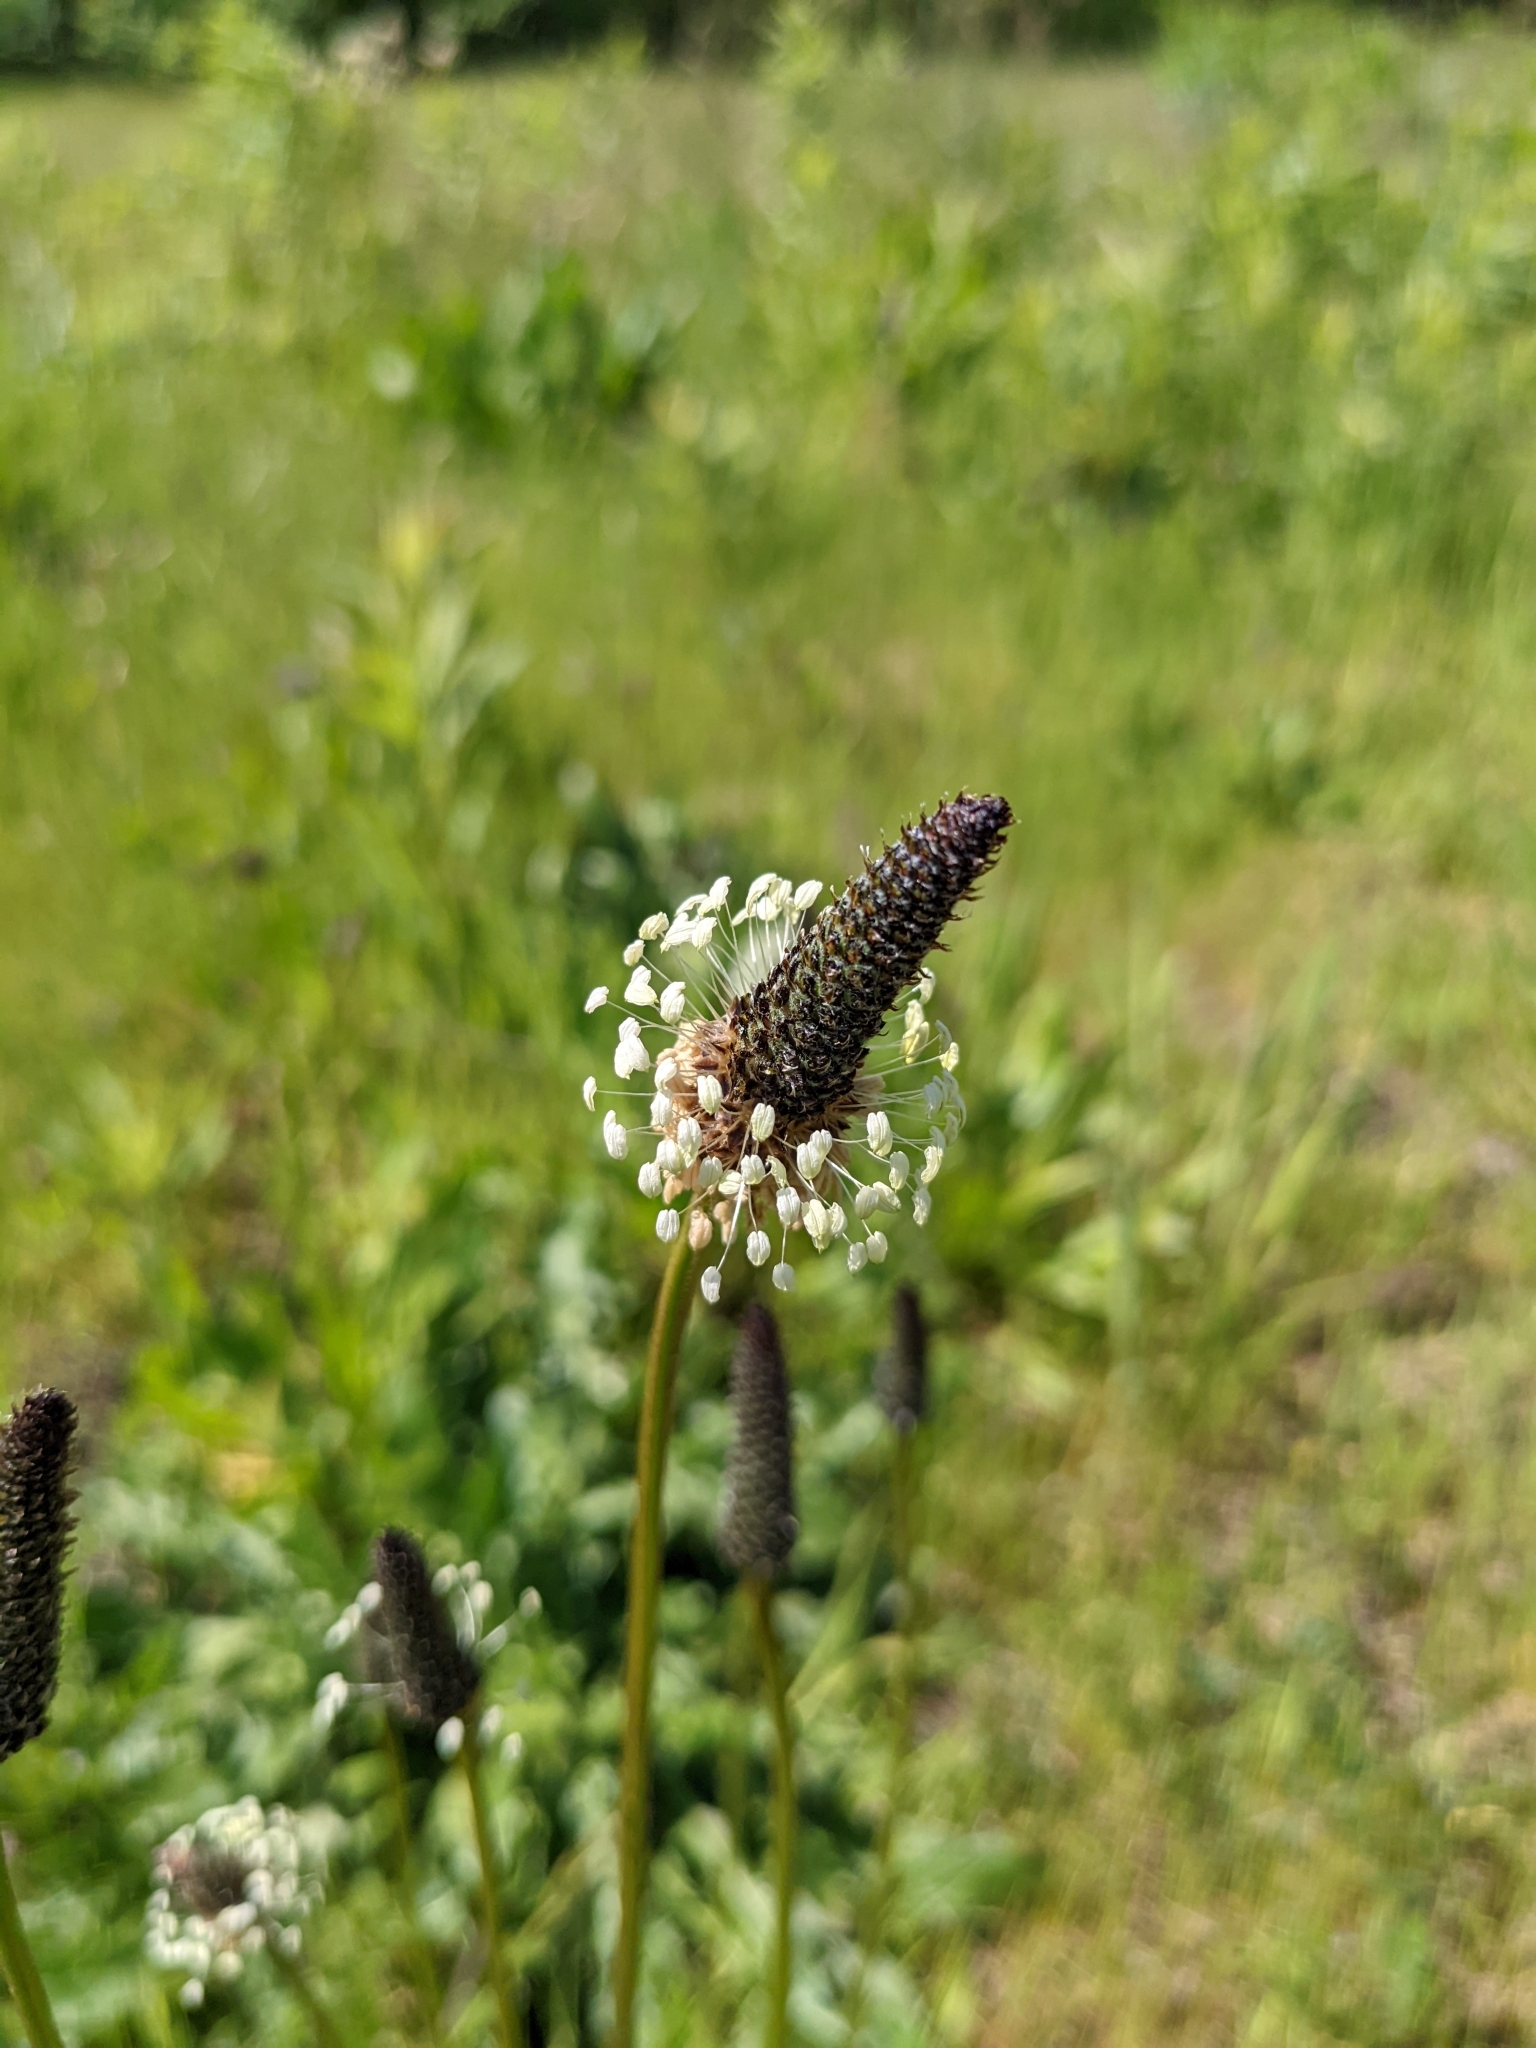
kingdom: Plantae
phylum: Tracheophyta
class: Magnoliopsida
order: Lamiales
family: Plantaginaceae
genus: Plantago
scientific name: Plantago lanceolata
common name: Ribwort plantain
